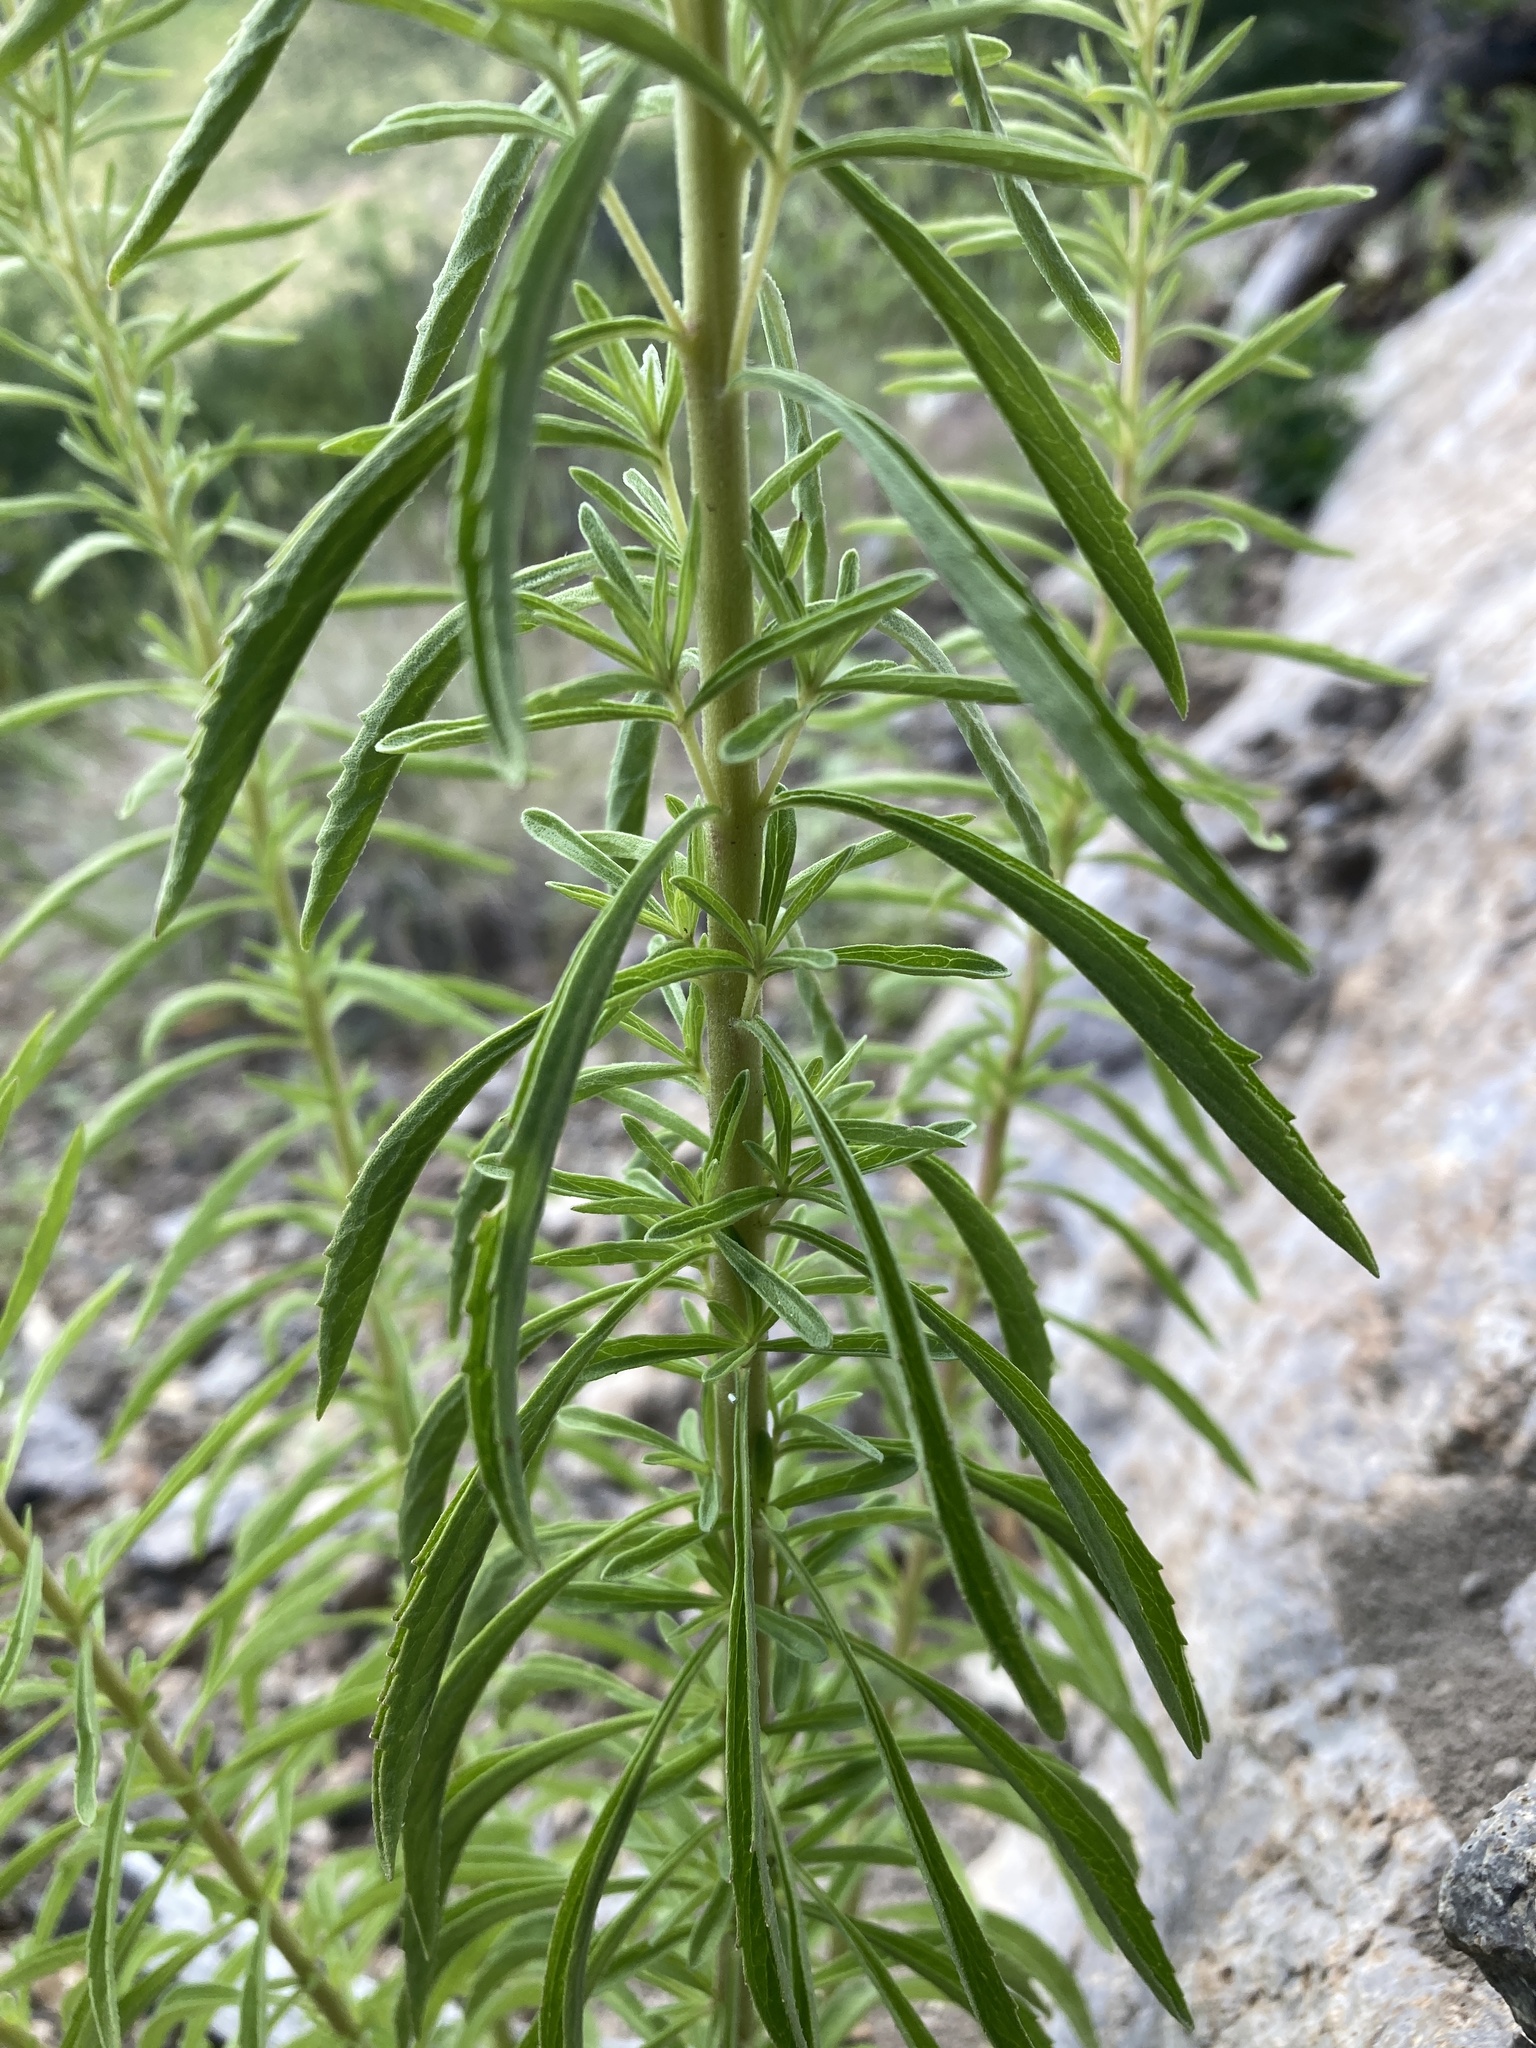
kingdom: Plantae
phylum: Tracheophyta
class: Magnoliopsida
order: Asterales
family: Asteraceae
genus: Stevia
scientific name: Stevia serrata
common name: Sawtooth candyleaf
